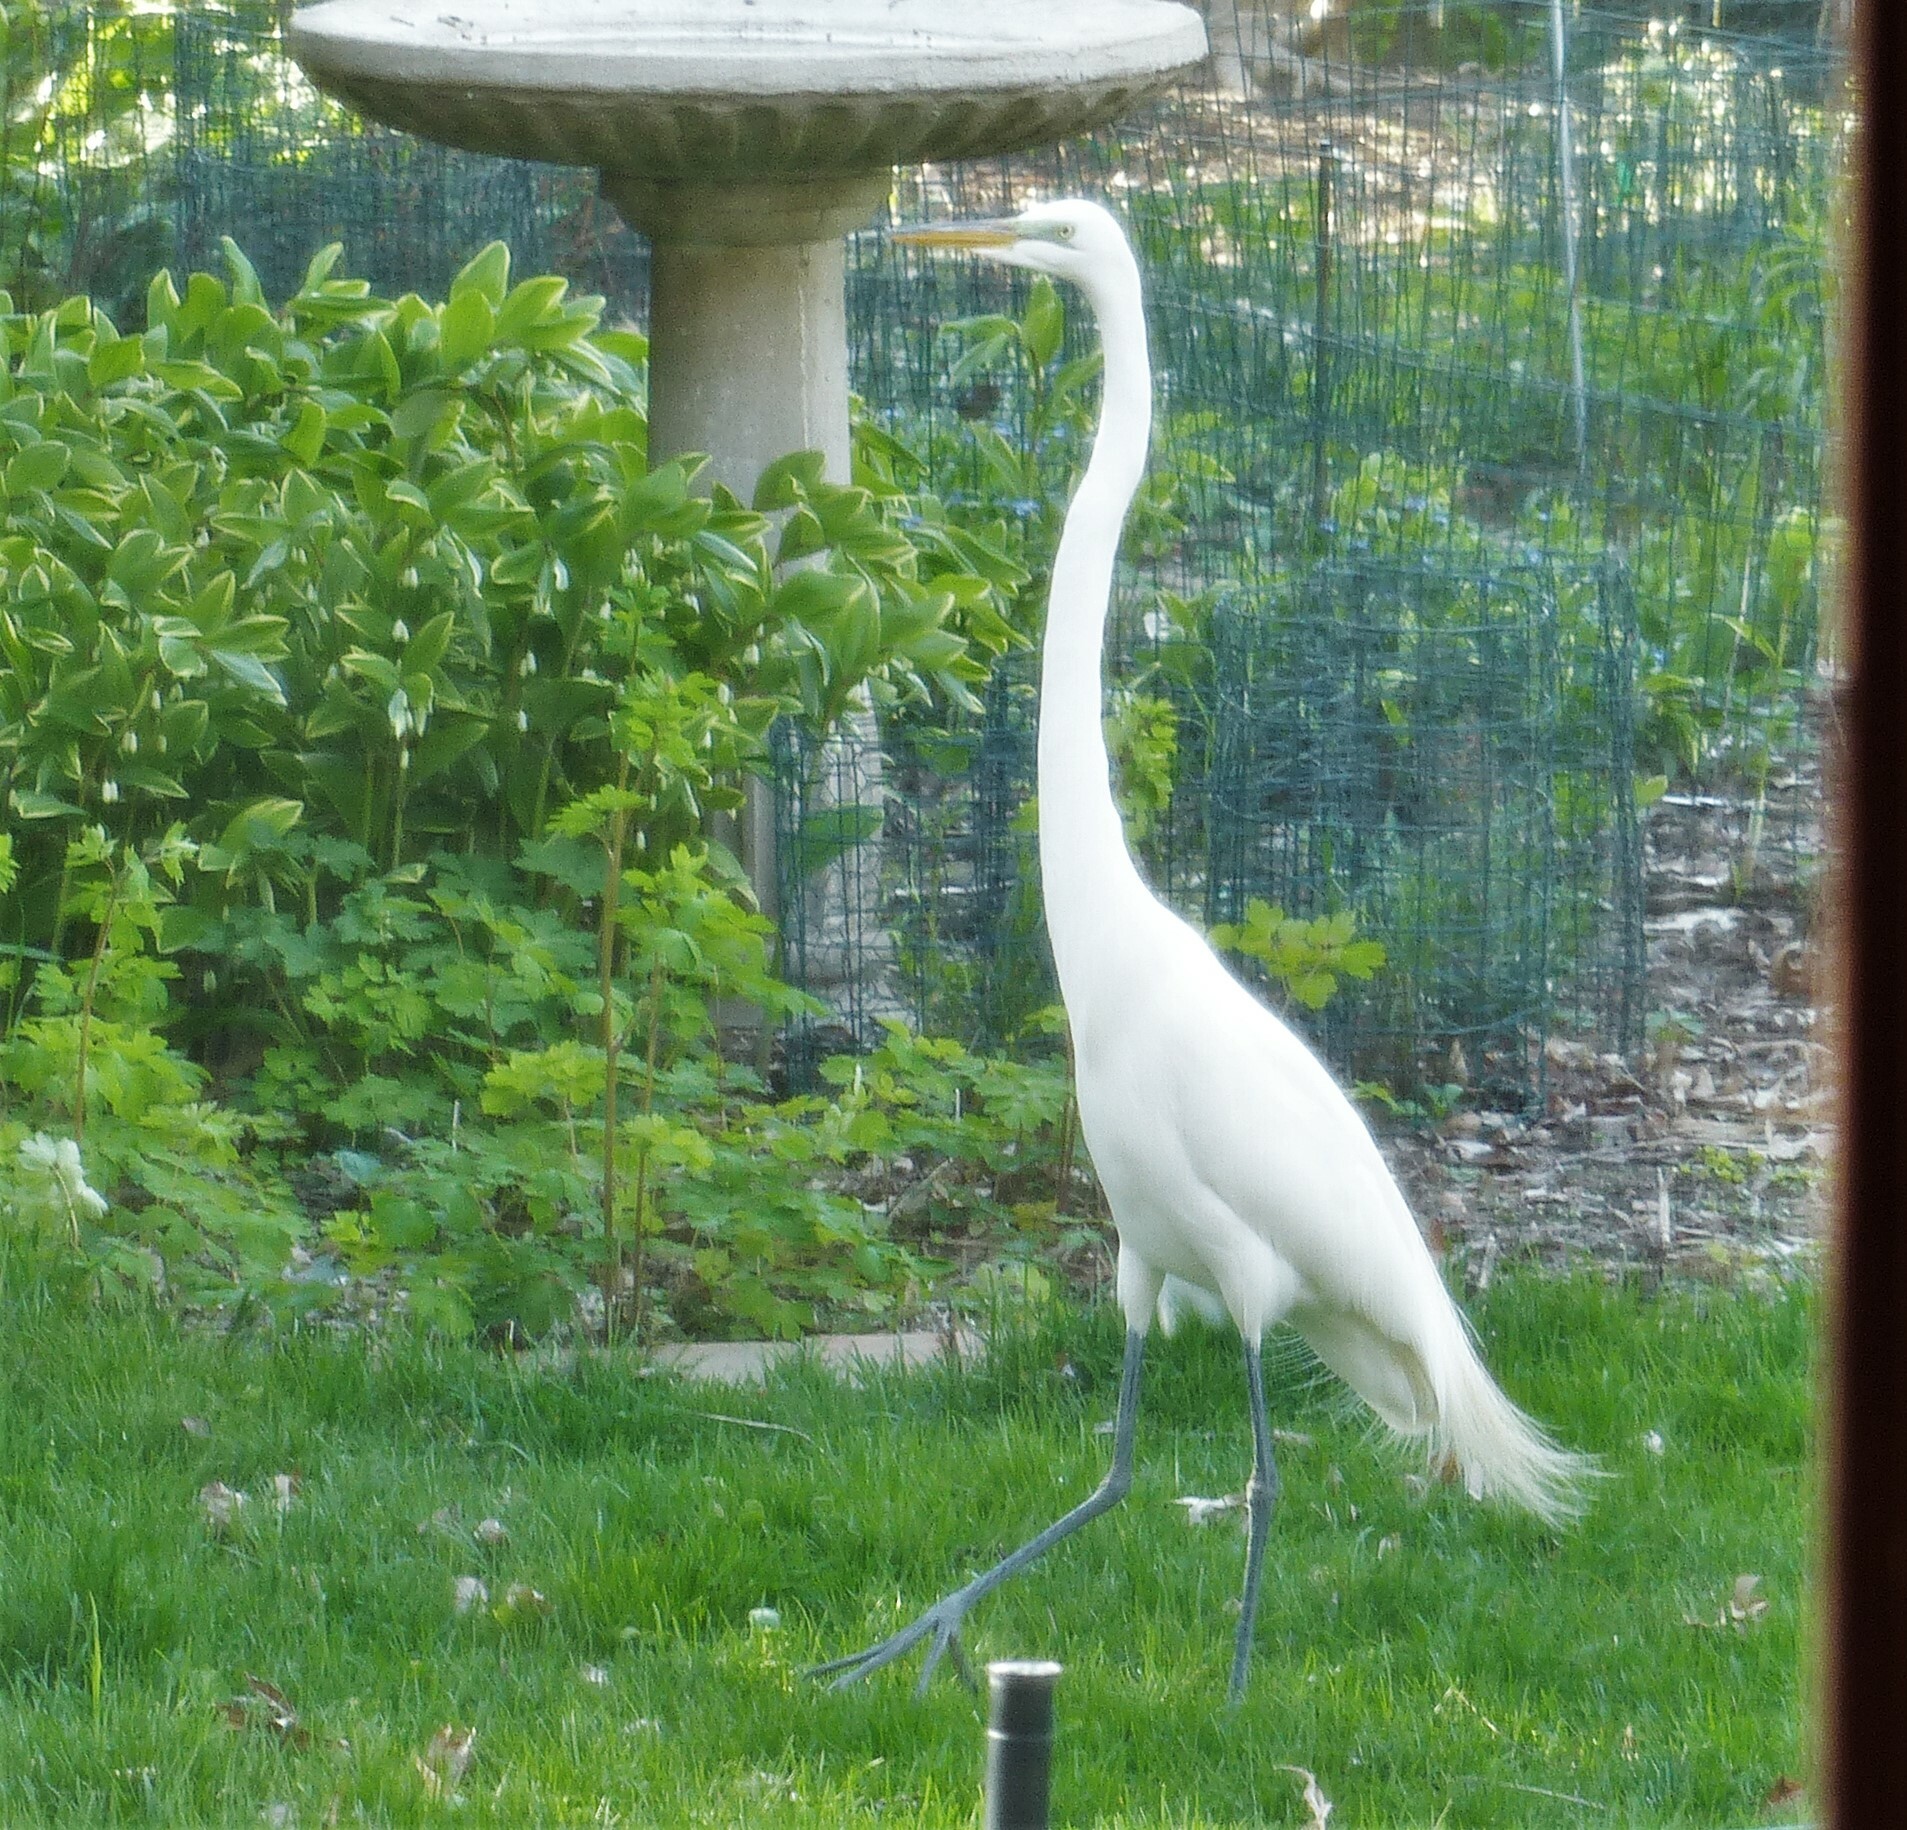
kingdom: Animalia
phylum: Chordata
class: Aves
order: Pelecaniformes
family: Ardeidae
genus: Ardea
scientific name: Ardea alba
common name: Great egret
